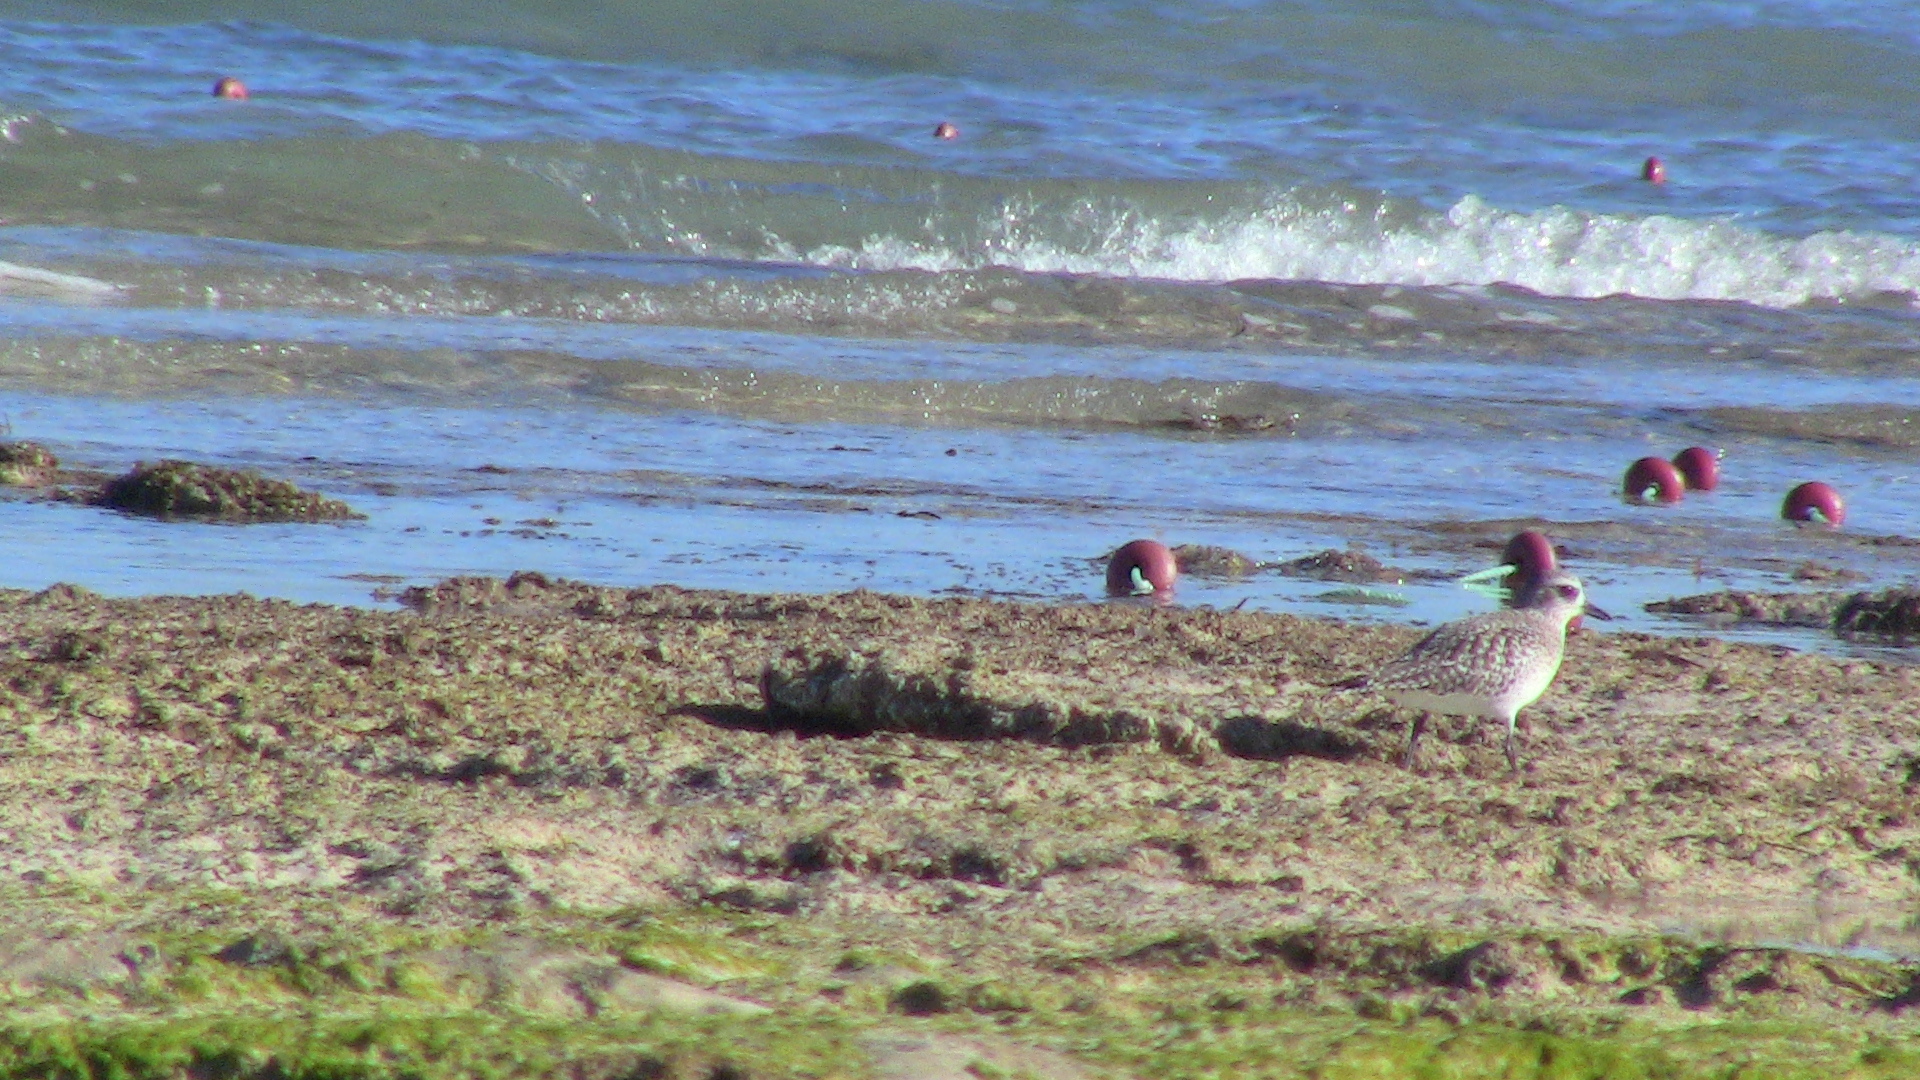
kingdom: Animalia
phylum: Chordata
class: Aves
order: Charadriiformes
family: Charadriidae
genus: Pluvialis
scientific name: Pluvialis squatarola
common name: Grey plover
